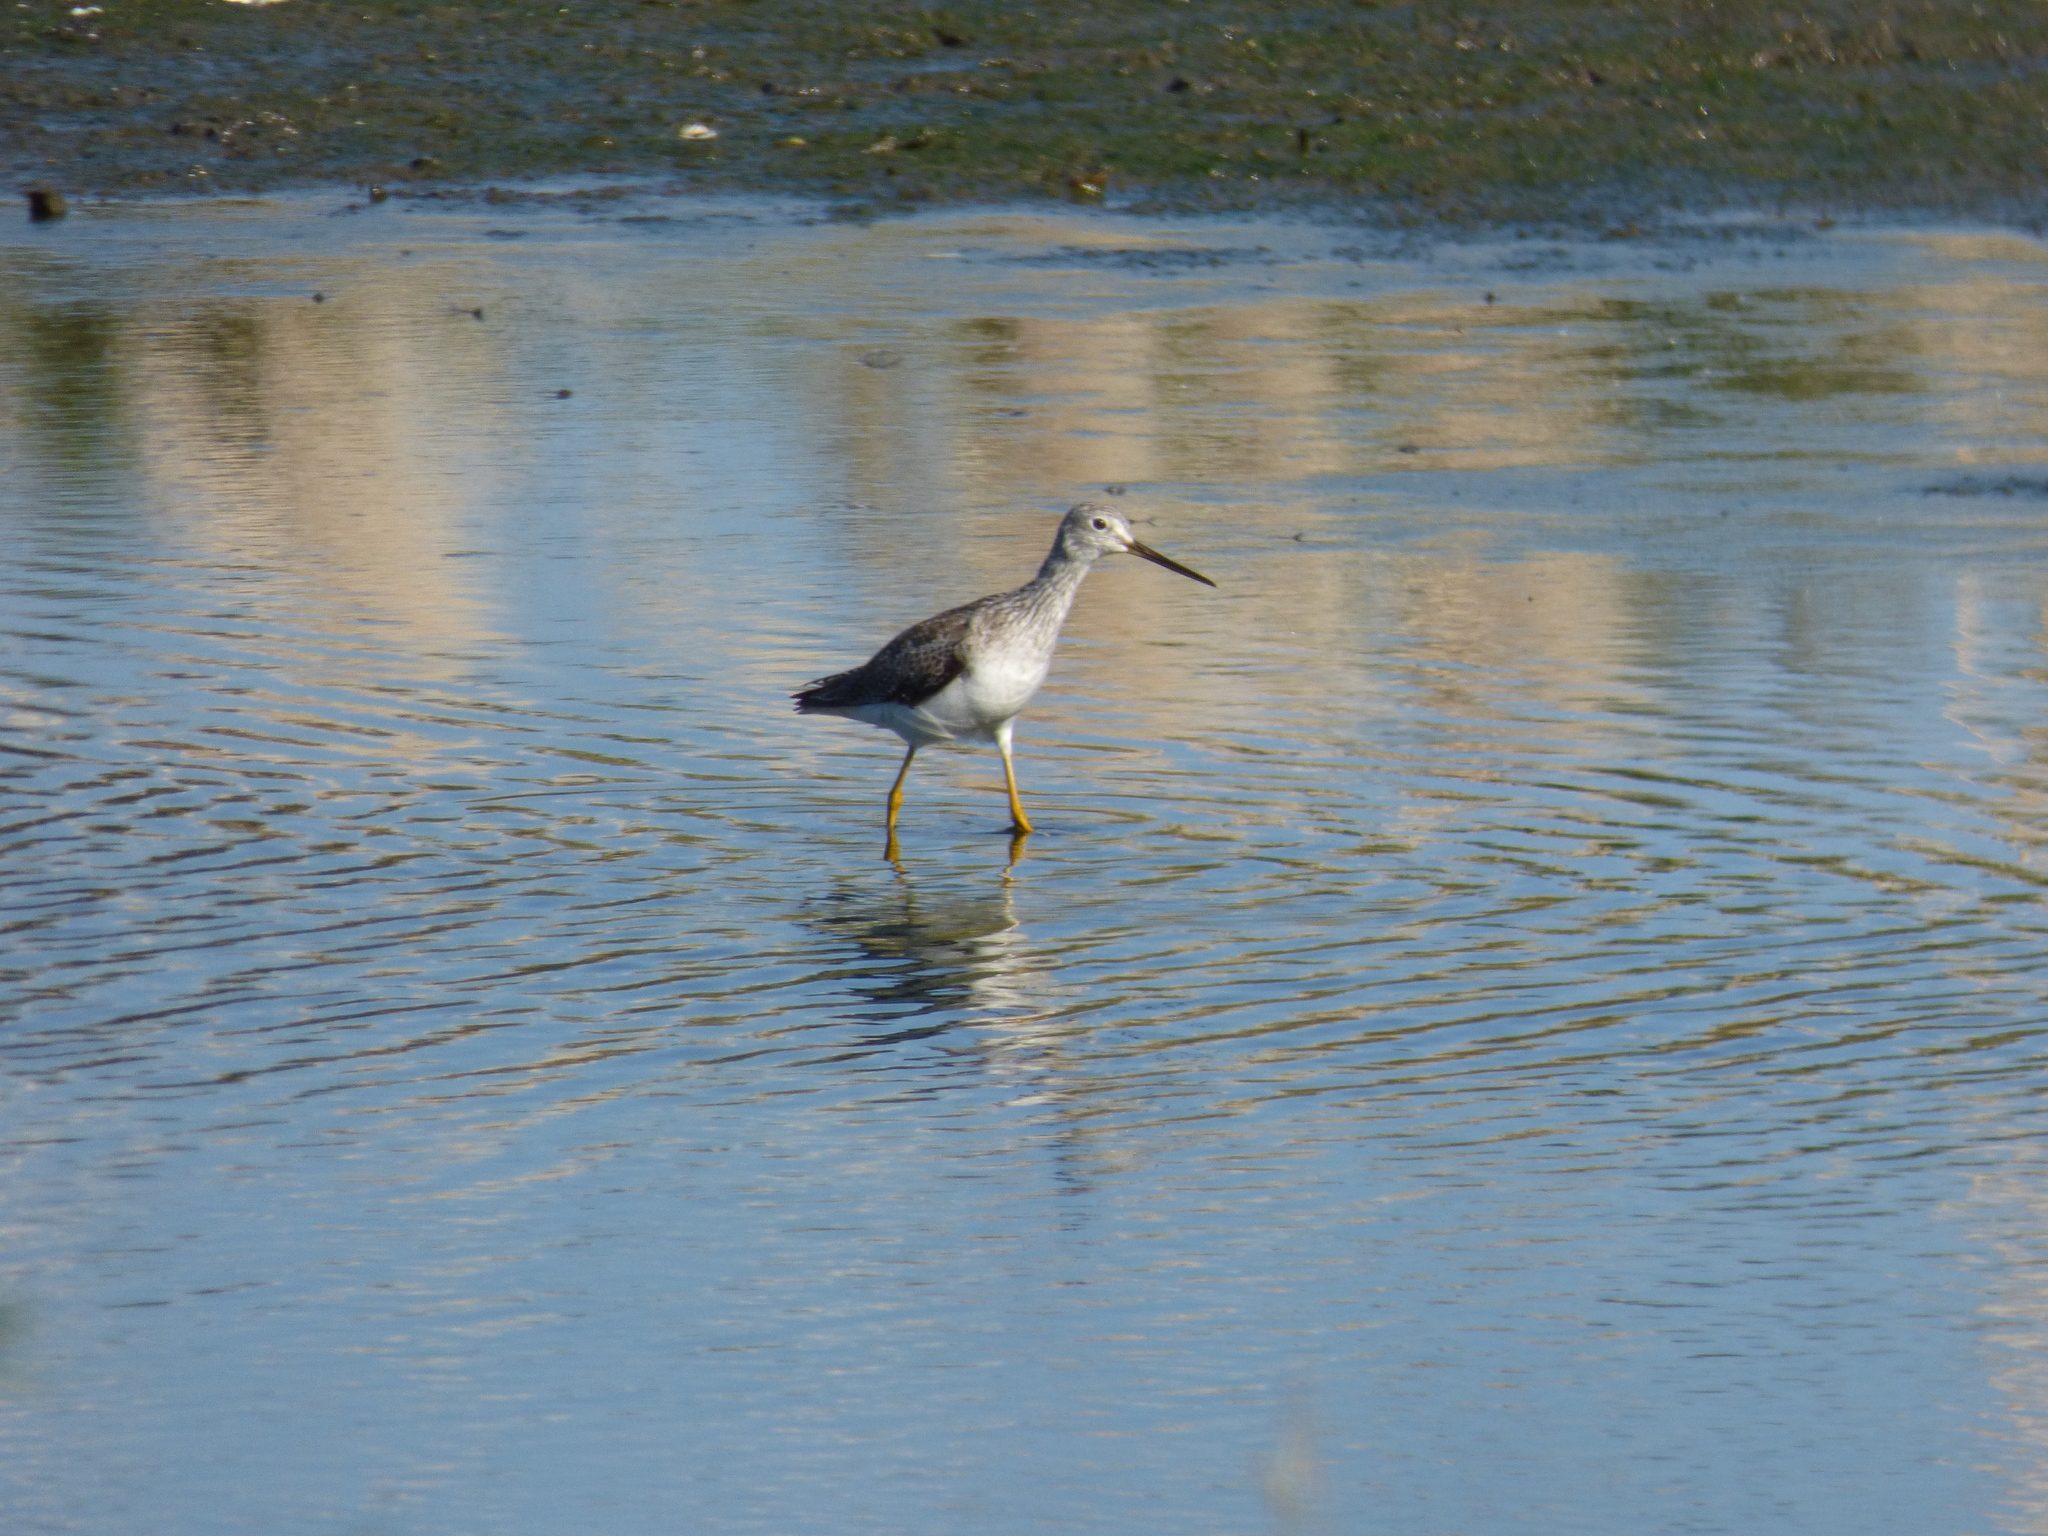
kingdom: Animalia
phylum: Chordata
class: Aves
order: Charadriiformes
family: Scolopacidae
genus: Tringa
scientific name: Tringa melanoleuca
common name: Greater yellowlegs
